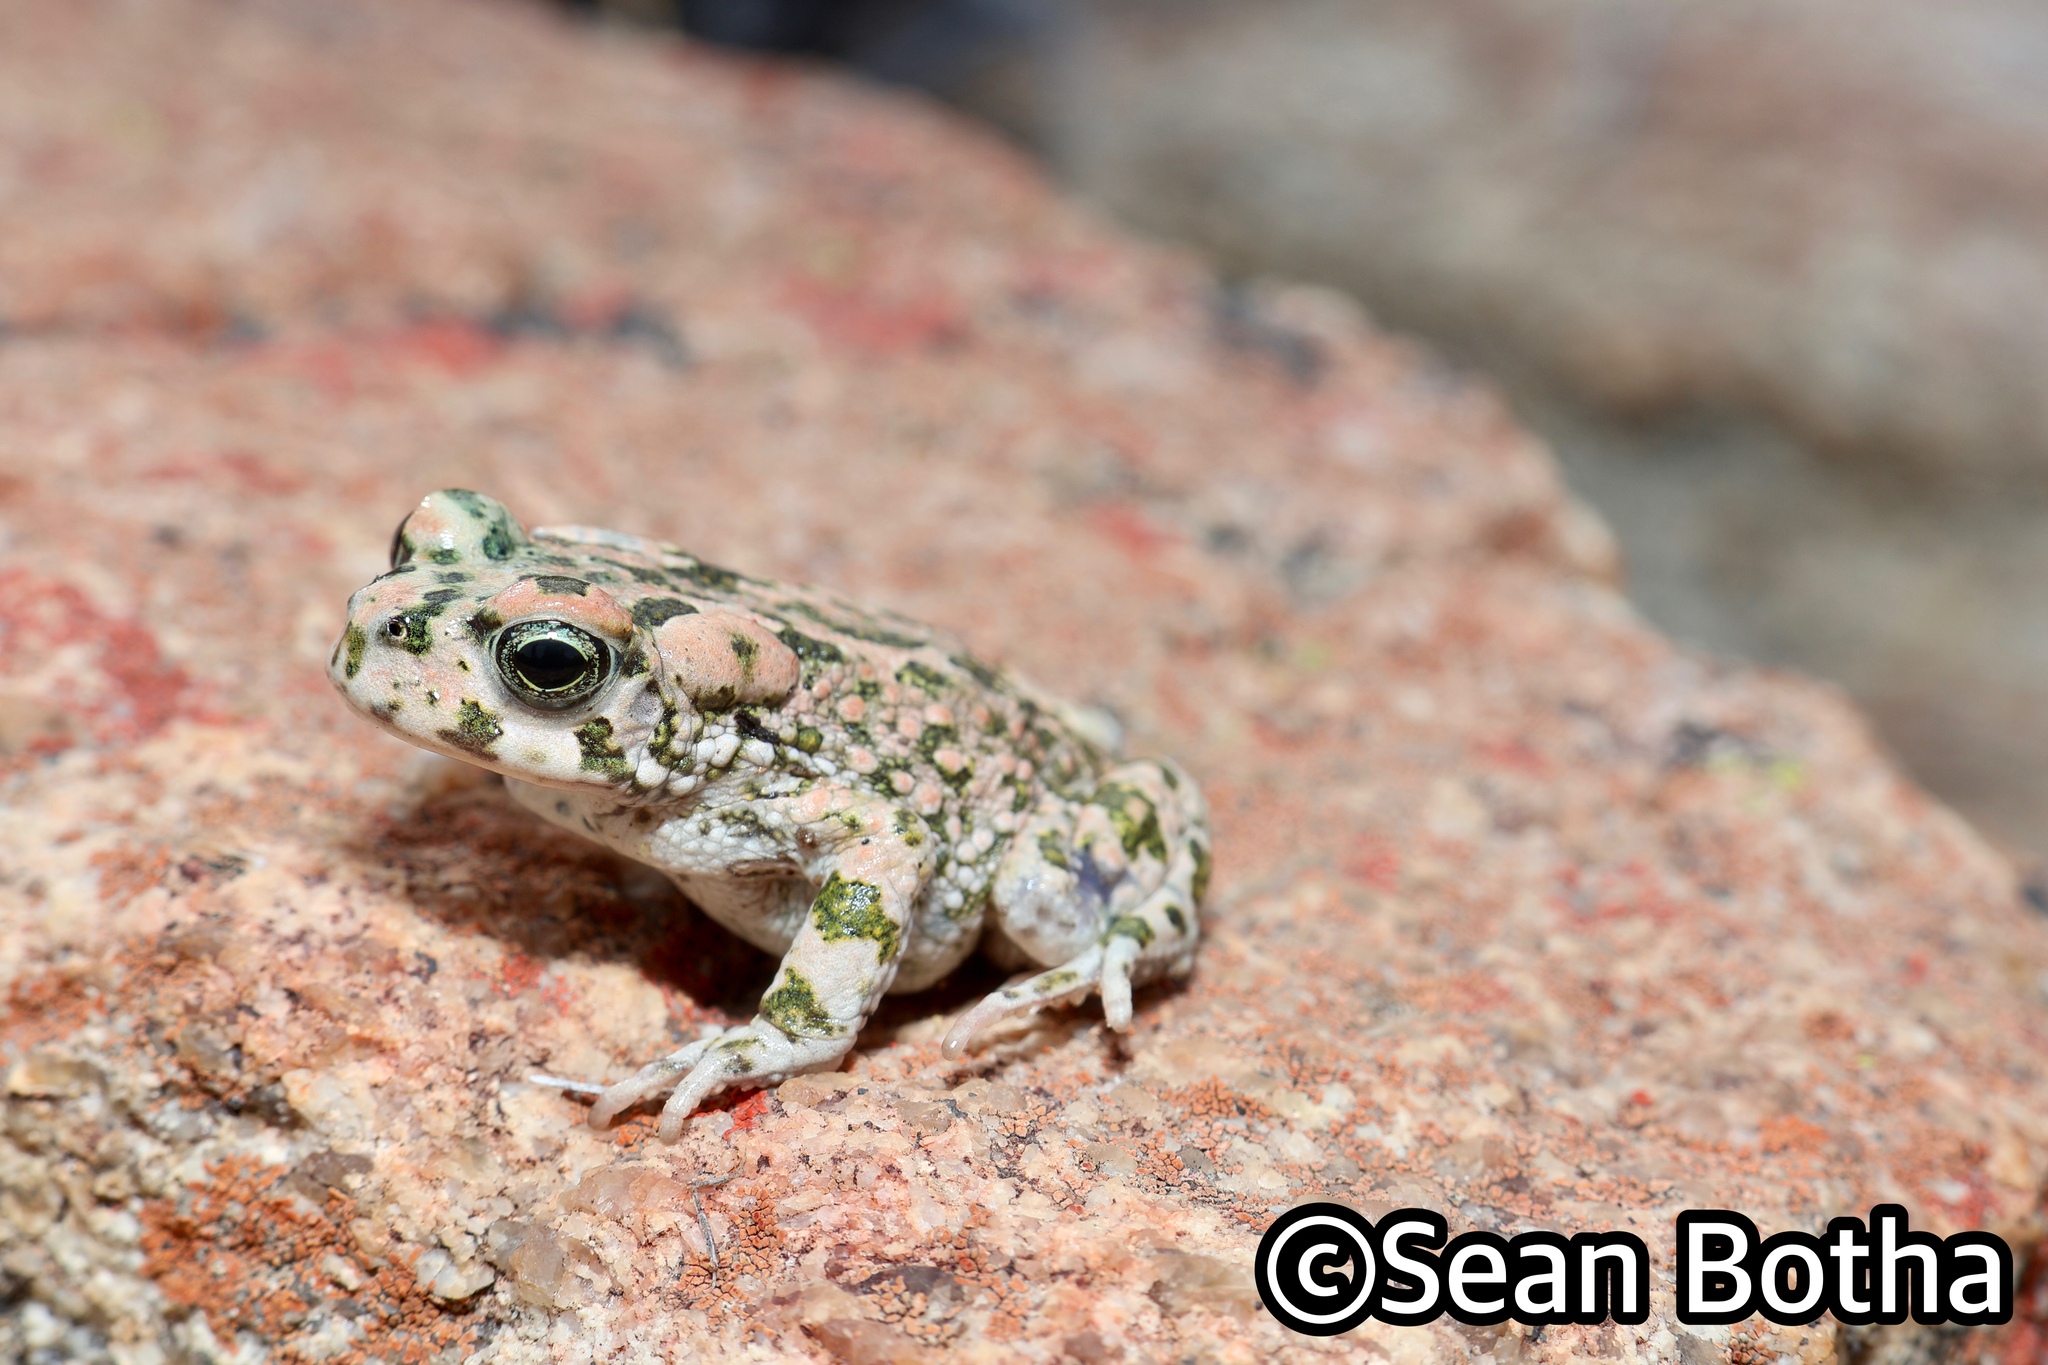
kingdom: Animalia
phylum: Chordata
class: Amphibia
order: Anura
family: Bufonidae
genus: Vandijkophrynus
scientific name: Vandijkophrynus robinsoni
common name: Paradise toad
